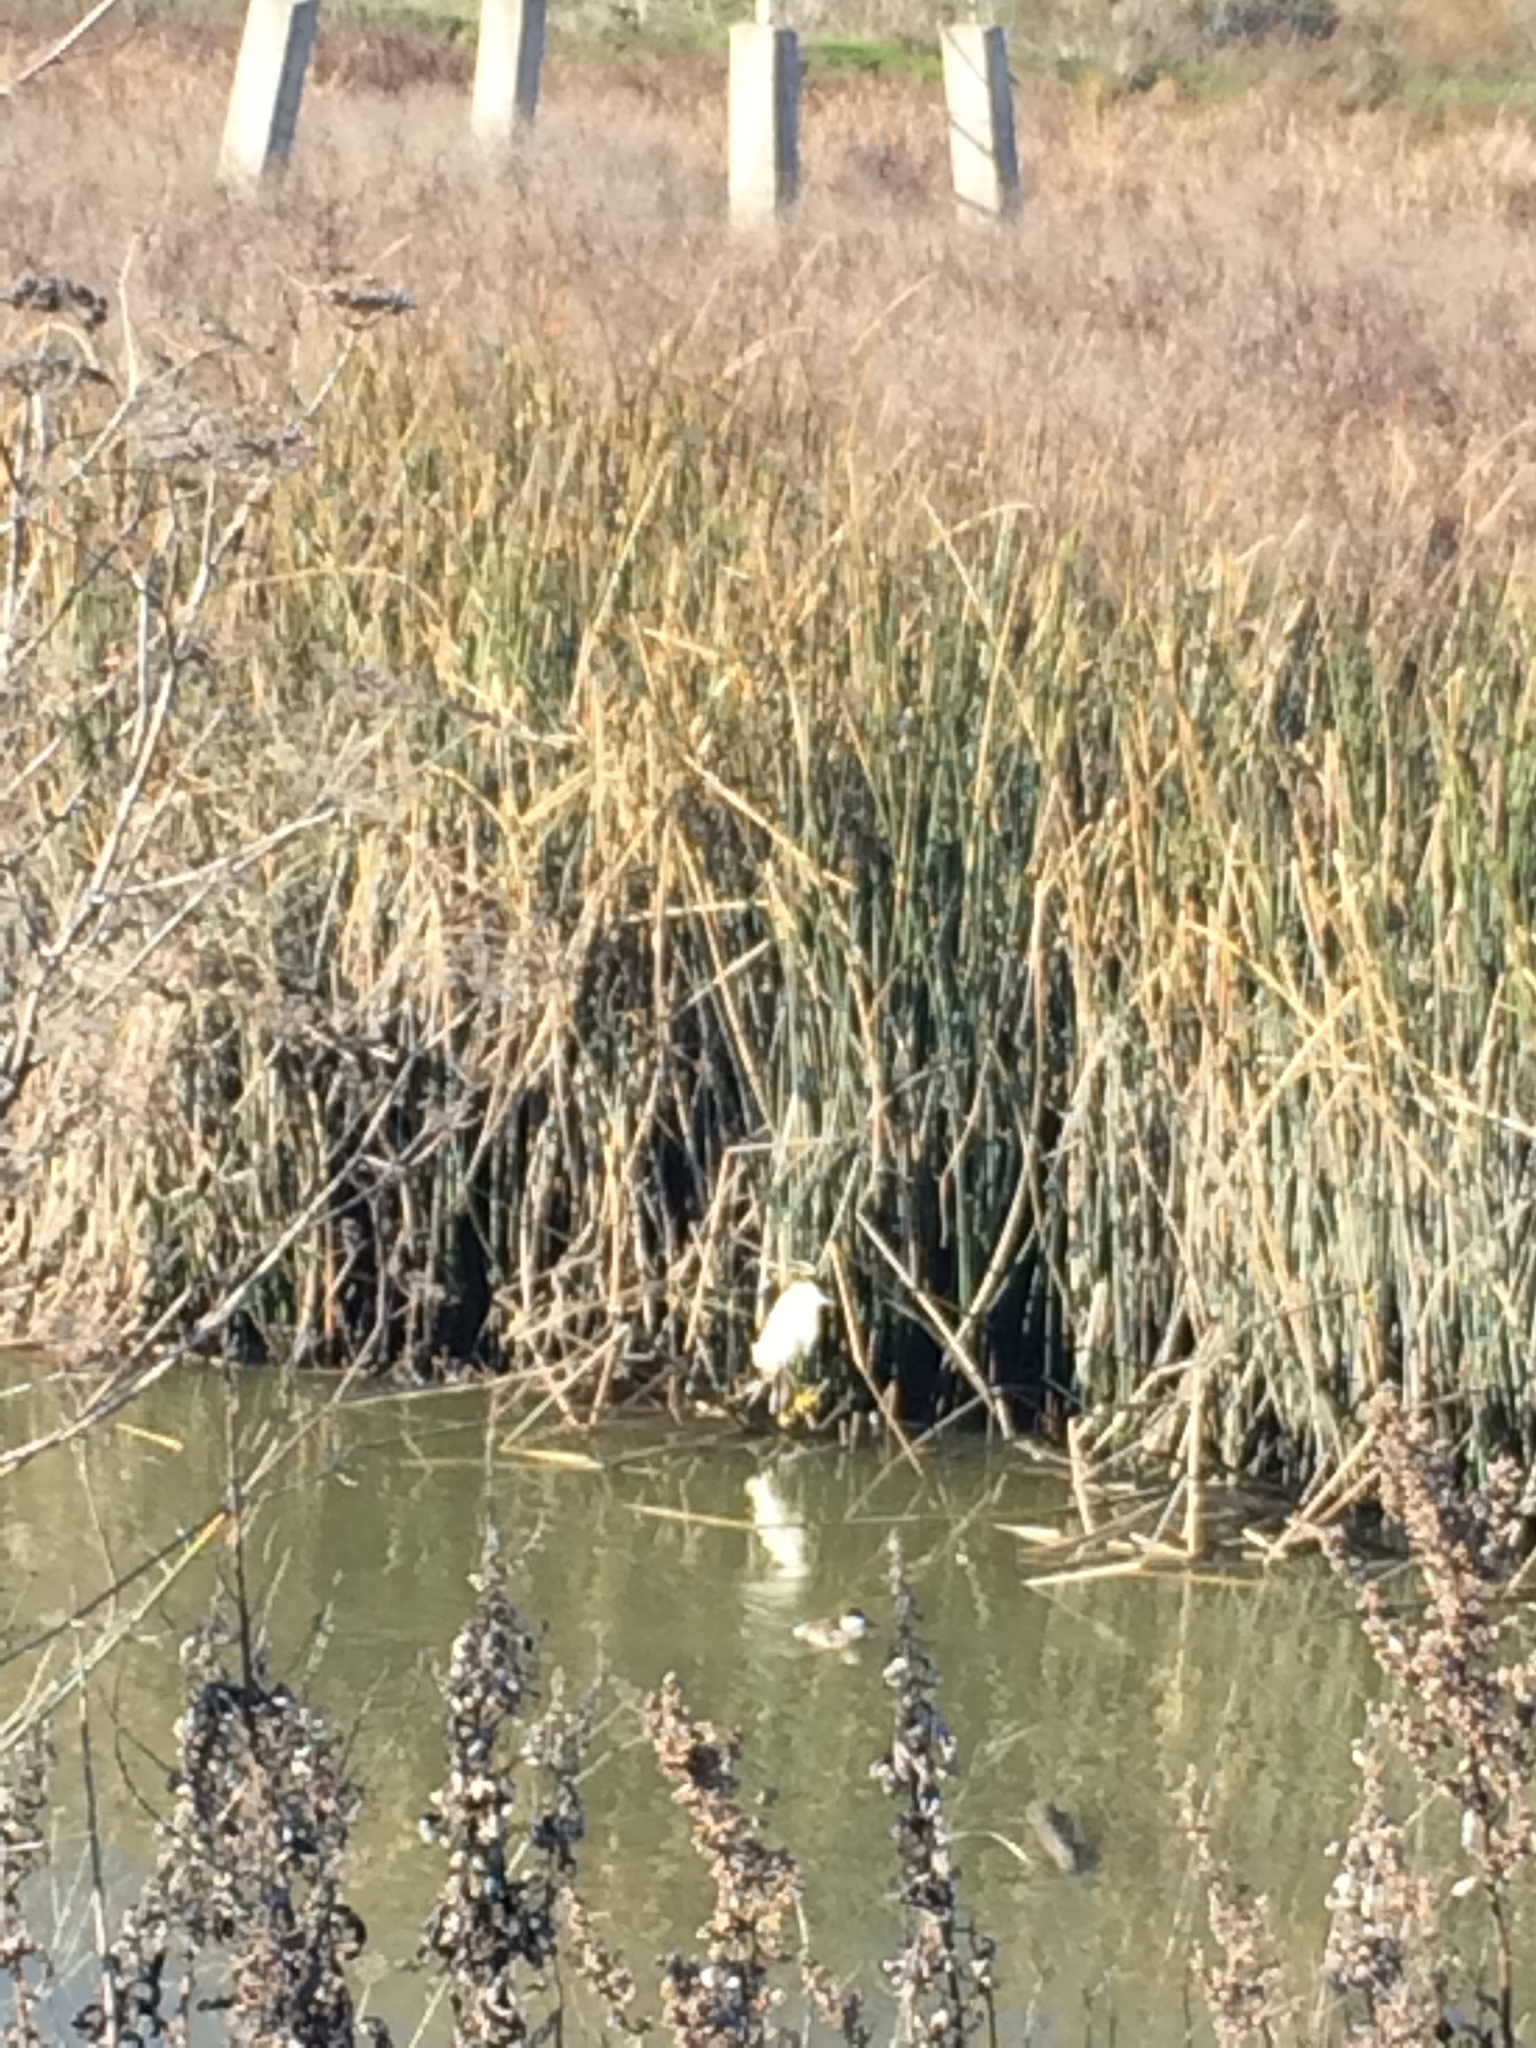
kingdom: Animalia
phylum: Chordata
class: Aves
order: Pelecaniformes
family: Ardeidae
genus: Ardea
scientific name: Ardea alba
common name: Great egret
